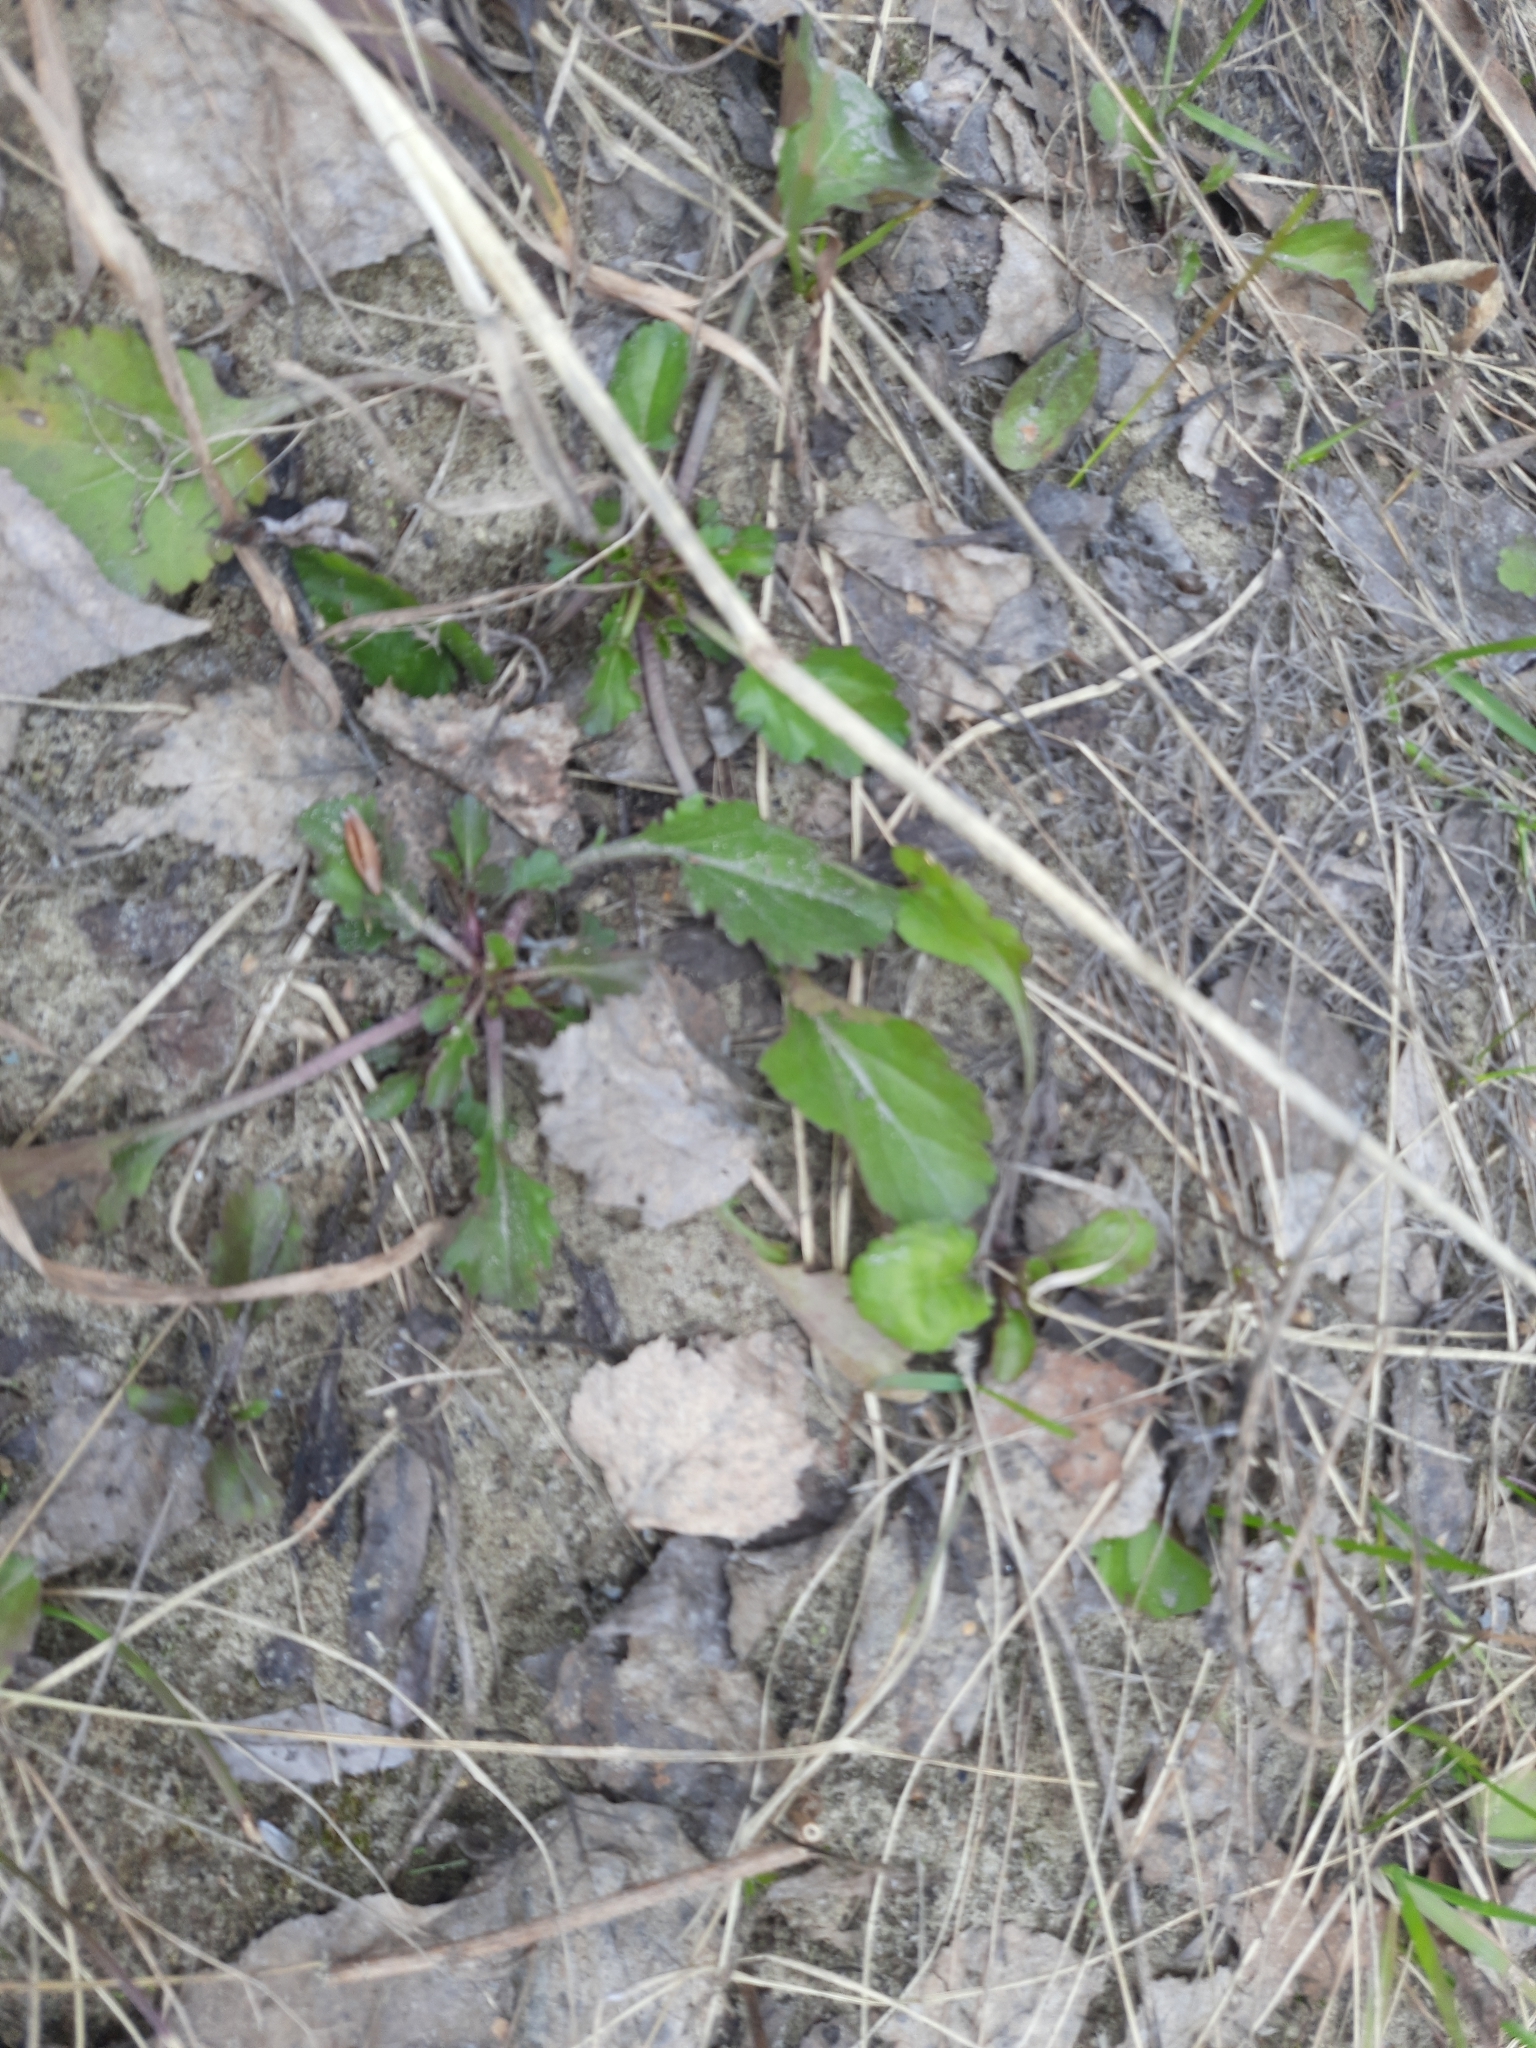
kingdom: Plantae
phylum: Tracheophyta
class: Magnoliopsida
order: Asterales
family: Asteraceae
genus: Leucanthemum
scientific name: Leucanthemum ircutianum
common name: Daisy
